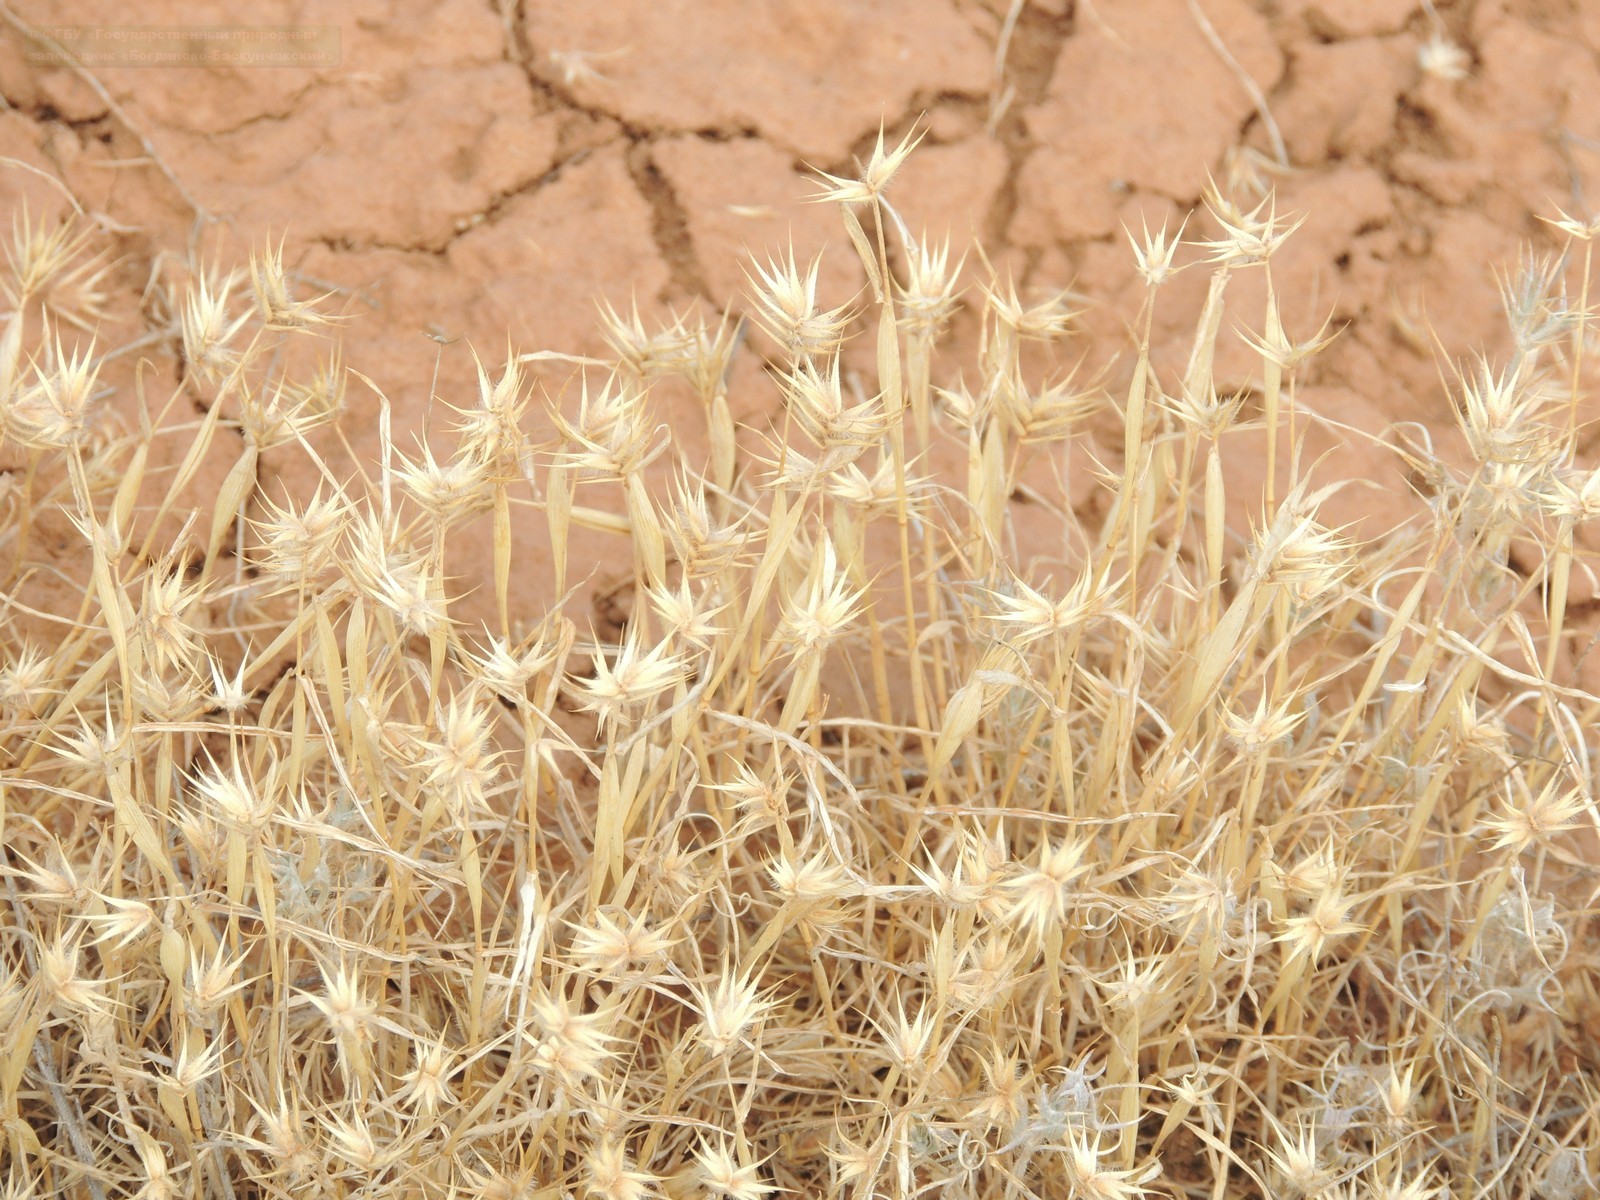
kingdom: Plantae
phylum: Tracheophyta
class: Liliopsida
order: Poales
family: Poaceae
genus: Eremopyrum
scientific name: Eremopyrum orientale
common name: Oriental false wheatgrass
